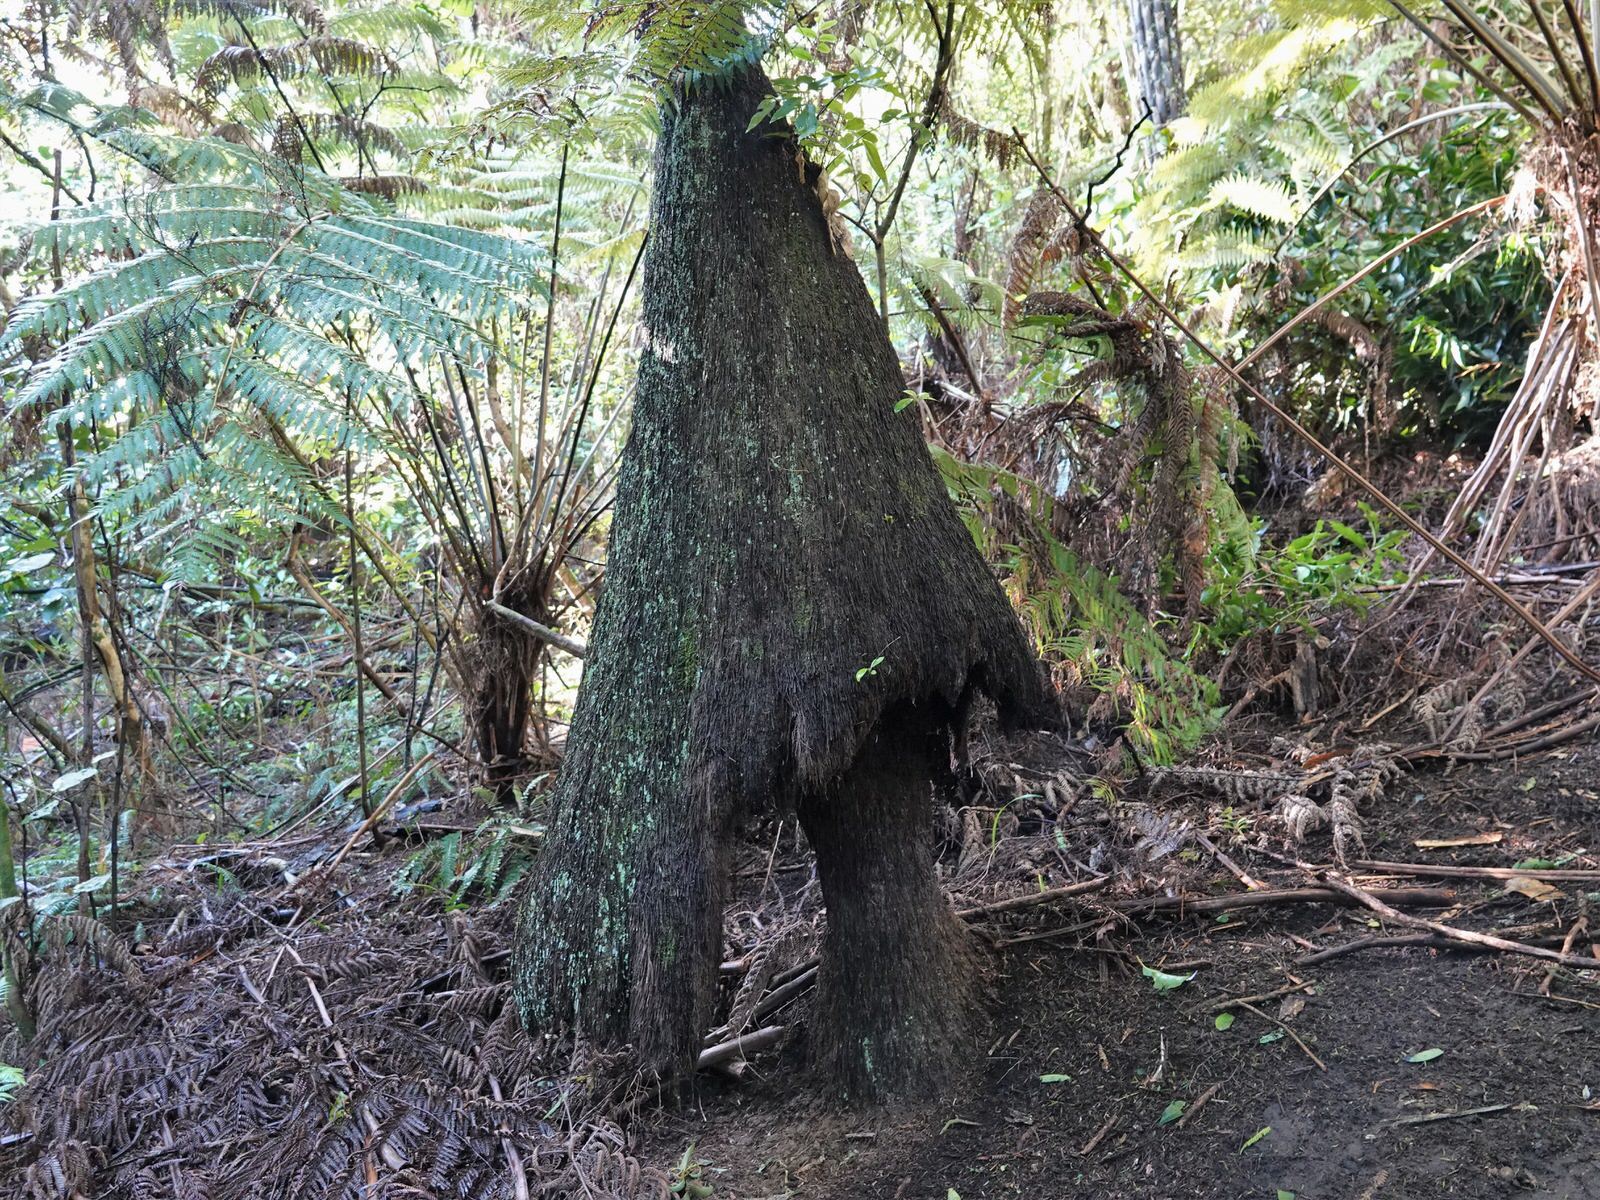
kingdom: Plantae
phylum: Tracheophyta
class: Polypodiopsida
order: Cyatheales
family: Cyatheaceae
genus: Alsophila
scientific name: Alsophila dealbata
